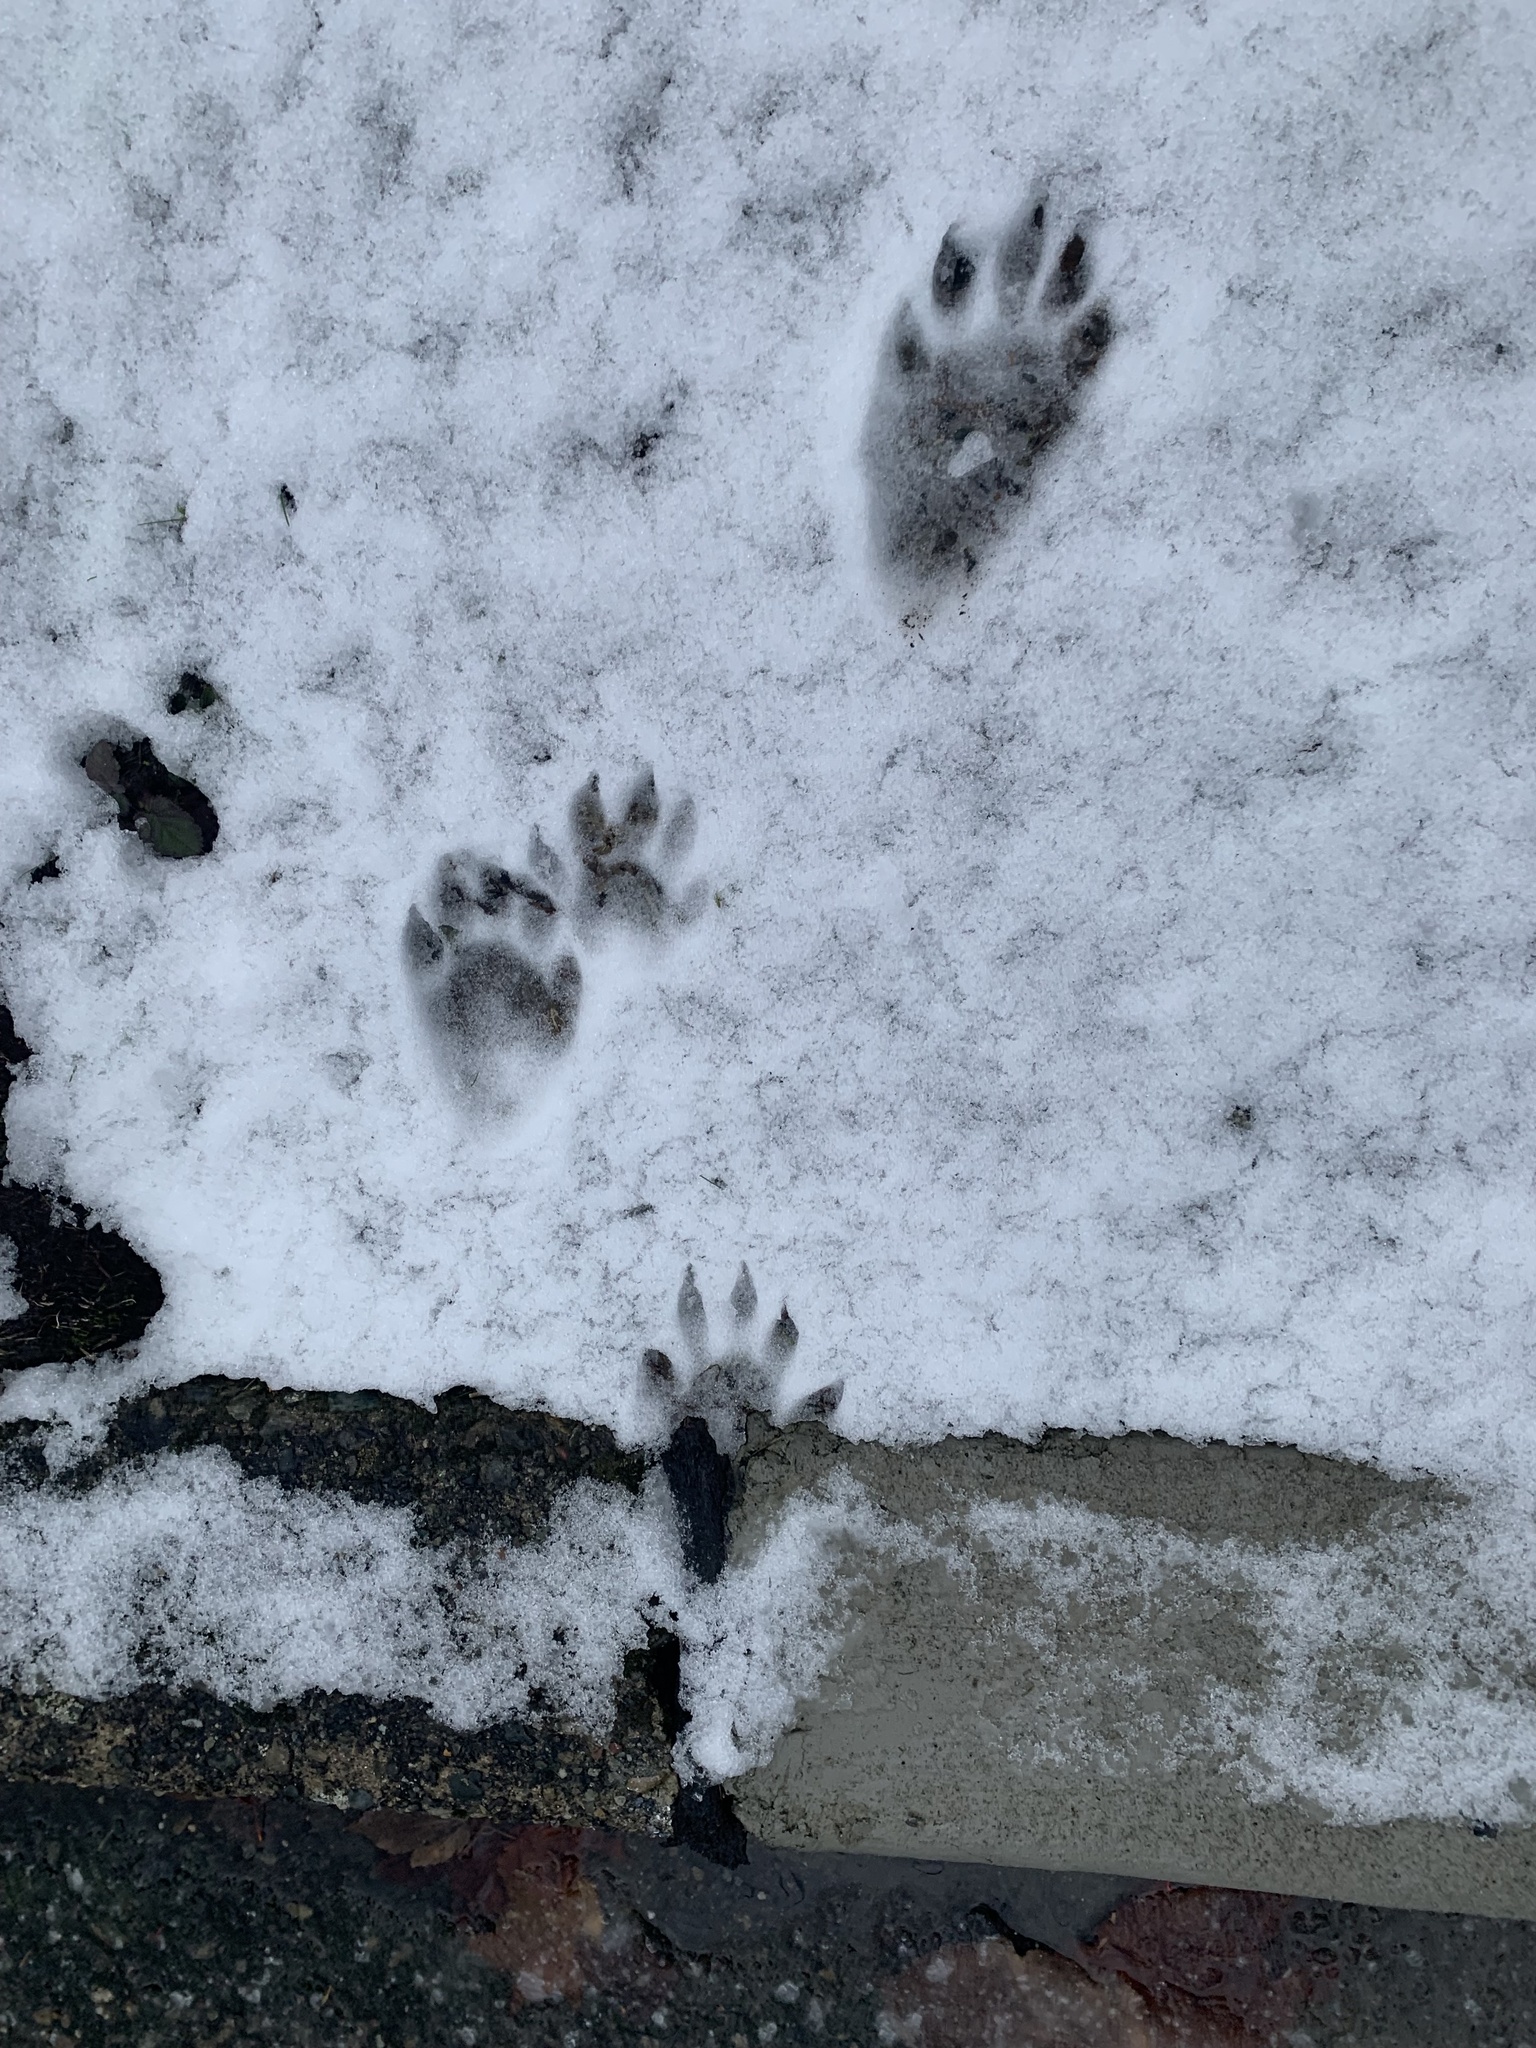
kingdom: Animalia
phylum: Chordata
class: Mammalia
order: Carnivora
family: Procyonidae
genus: Procyon
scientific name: Procyon lotor
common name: Raccoon
